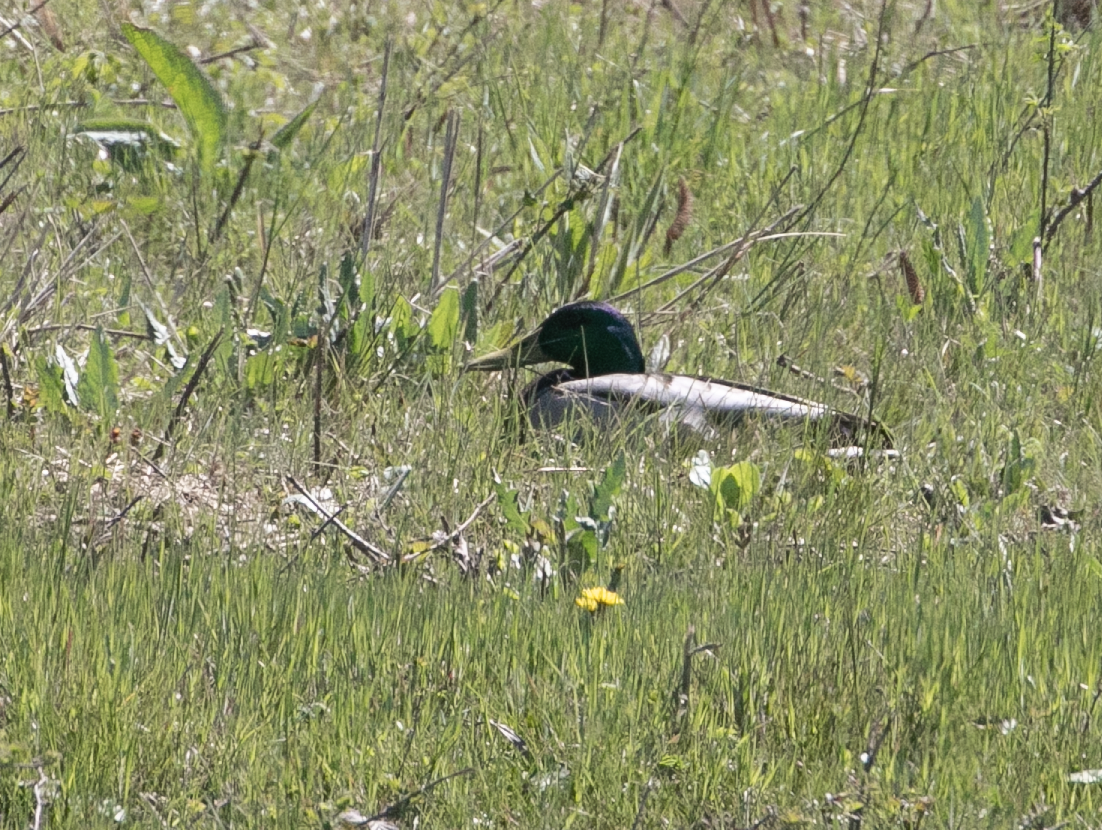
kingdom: Animalia
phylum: Chordata
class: Aves
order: Anseriformes
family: Anatidae
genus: Anas
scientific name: Anas platyrhynchos
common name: Mallard
